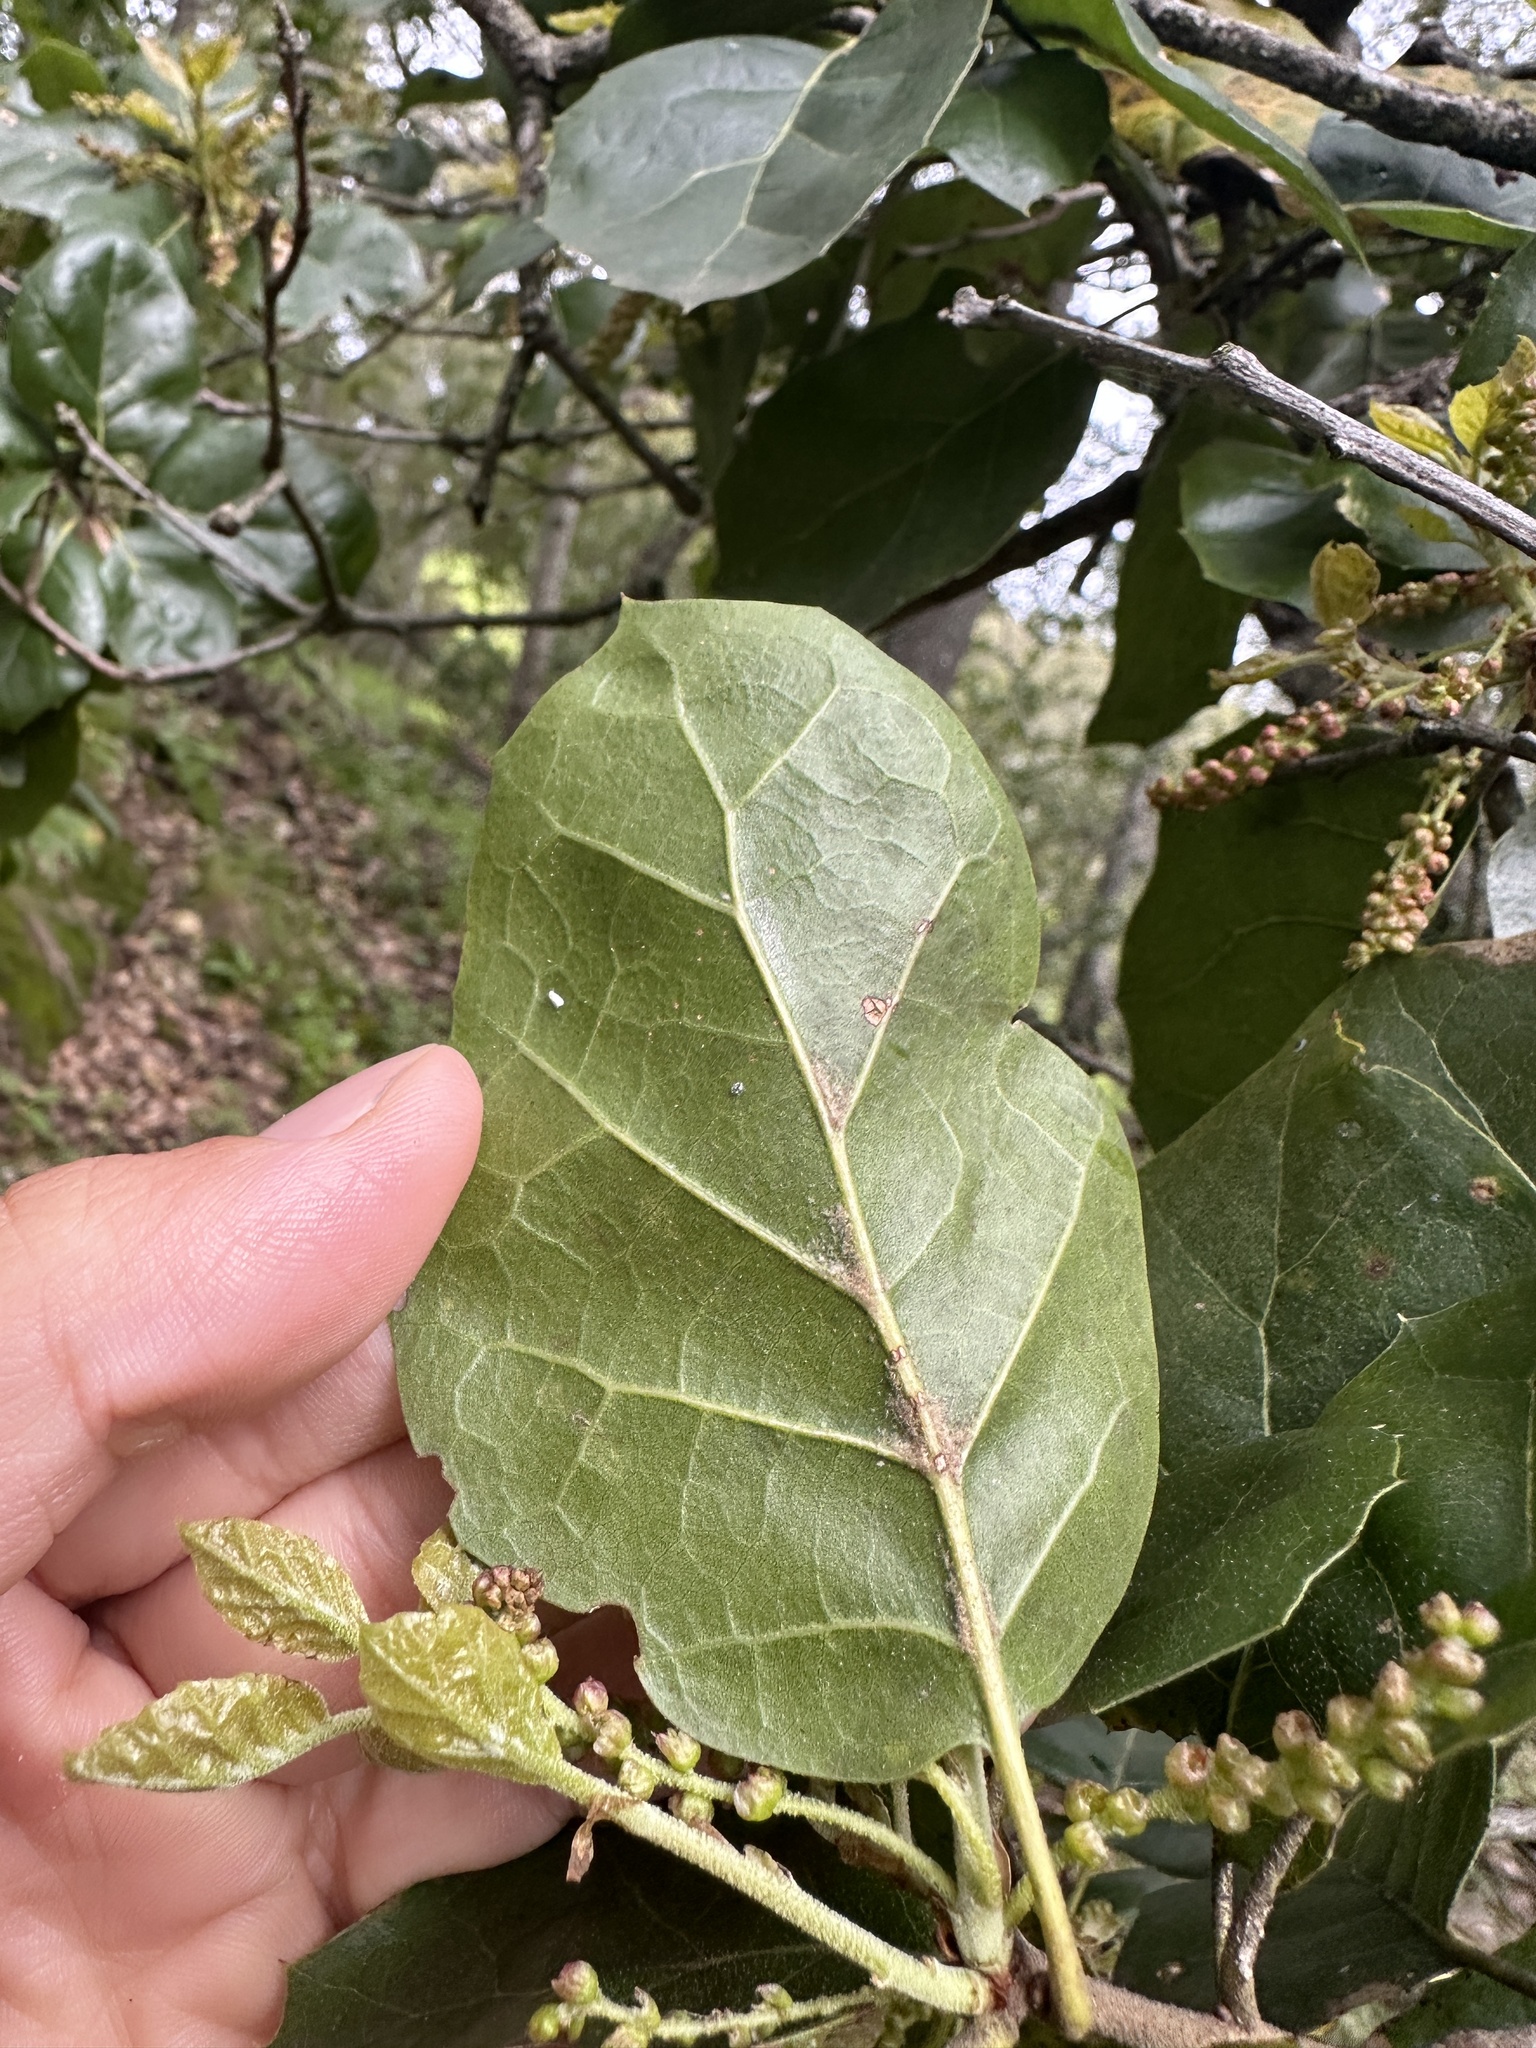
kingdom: Plantae
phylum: Tracheophyta
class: Magnoliopsida
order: Fagales
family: Fagaceae
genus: Quercus
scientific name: Quercus agrifolia
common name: California live oak
